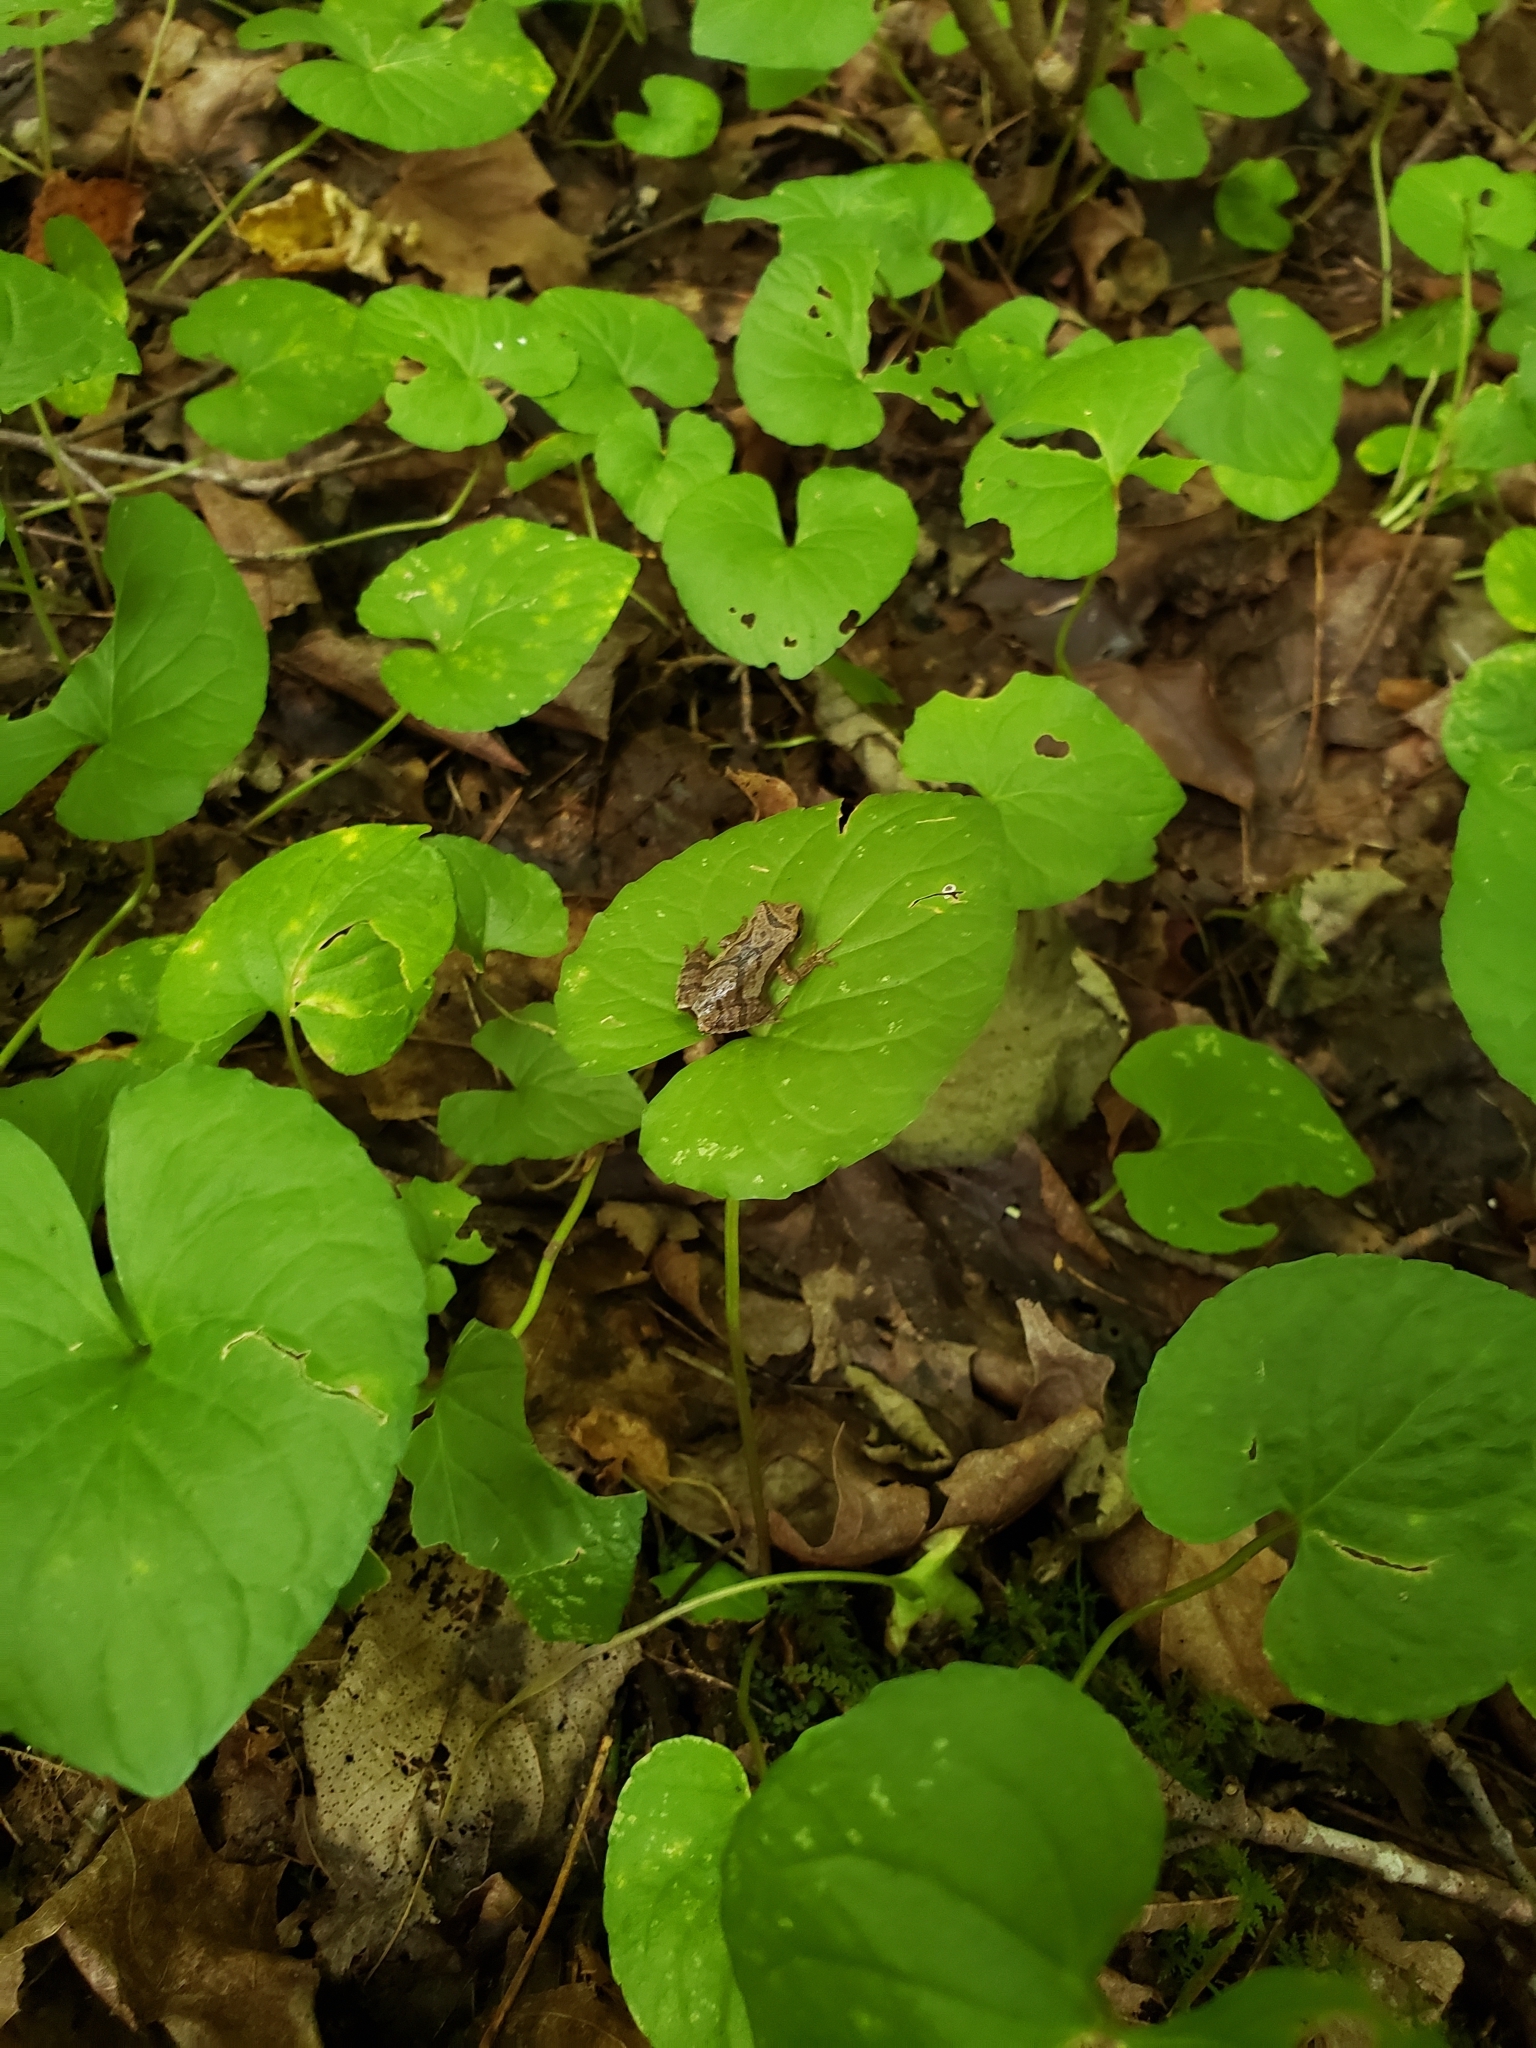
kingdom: Animalia
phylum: Chordata
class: Amphibia
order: Anura
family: Hylidae
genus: Pseudacris
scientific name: Pseudacris crucifer
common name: Spring peeper
